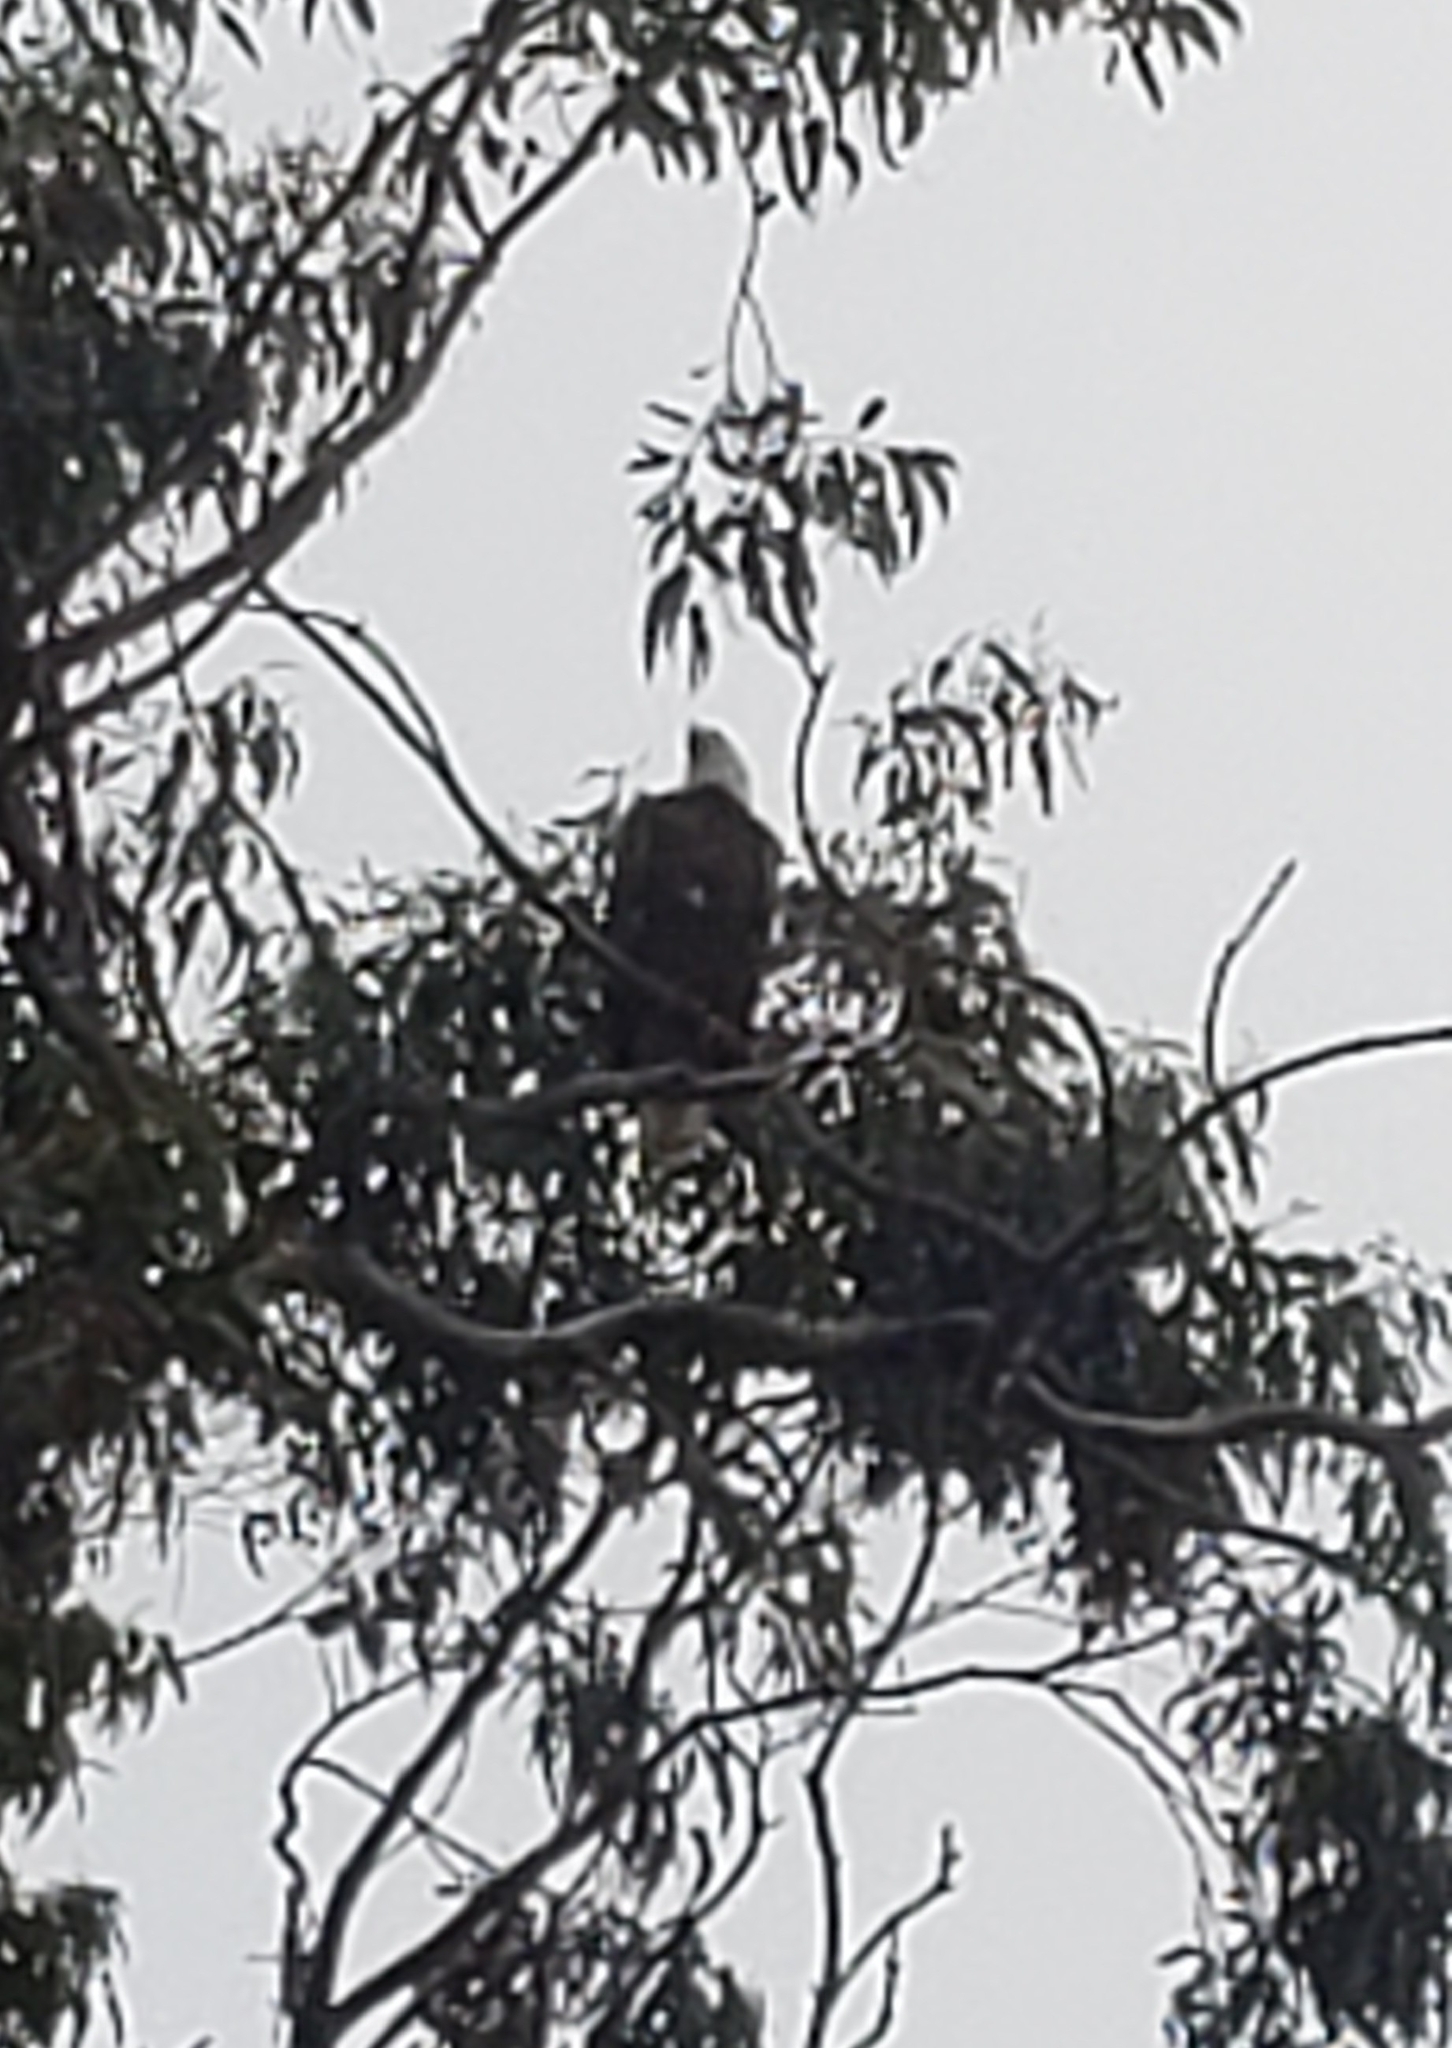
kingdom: Animalia
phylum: Chordata
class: Aves
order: Accipitriformes
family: Accipitridae
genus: Haliaeetus
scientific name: Haliaeetus leucocephalus
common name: Bald eagle
